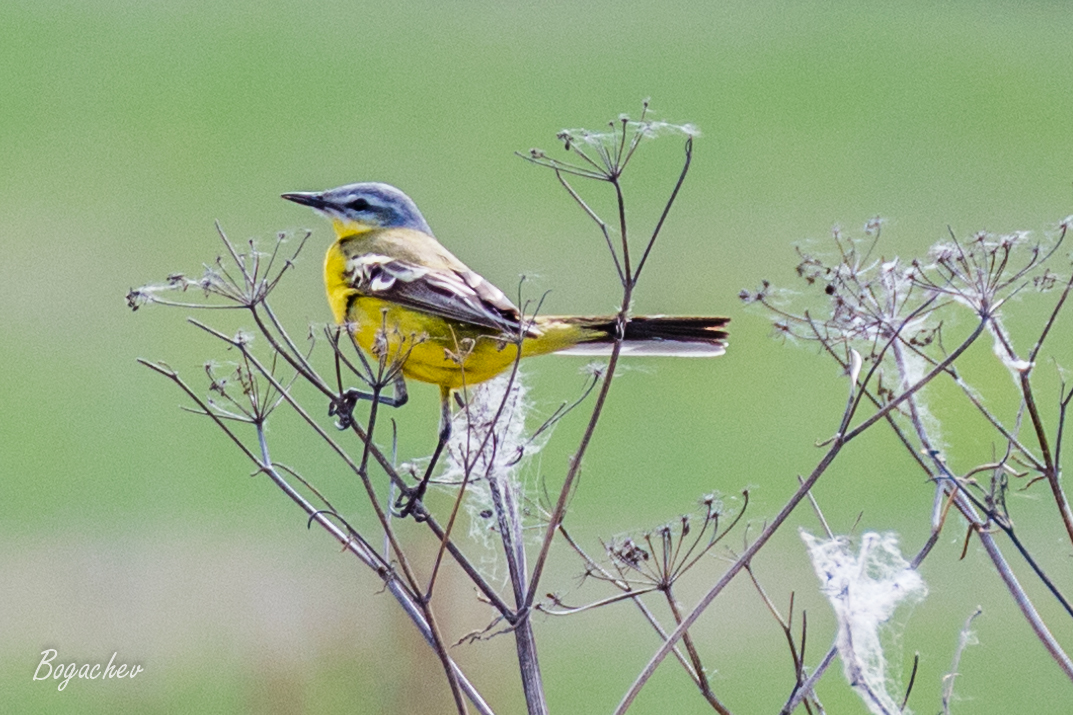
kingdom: Animalia
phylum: Chordata
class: Aves
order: Passeriformes
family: Motacillidae
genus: Motacilla
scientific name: Motacilla flava
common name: Western yellow wagtail
